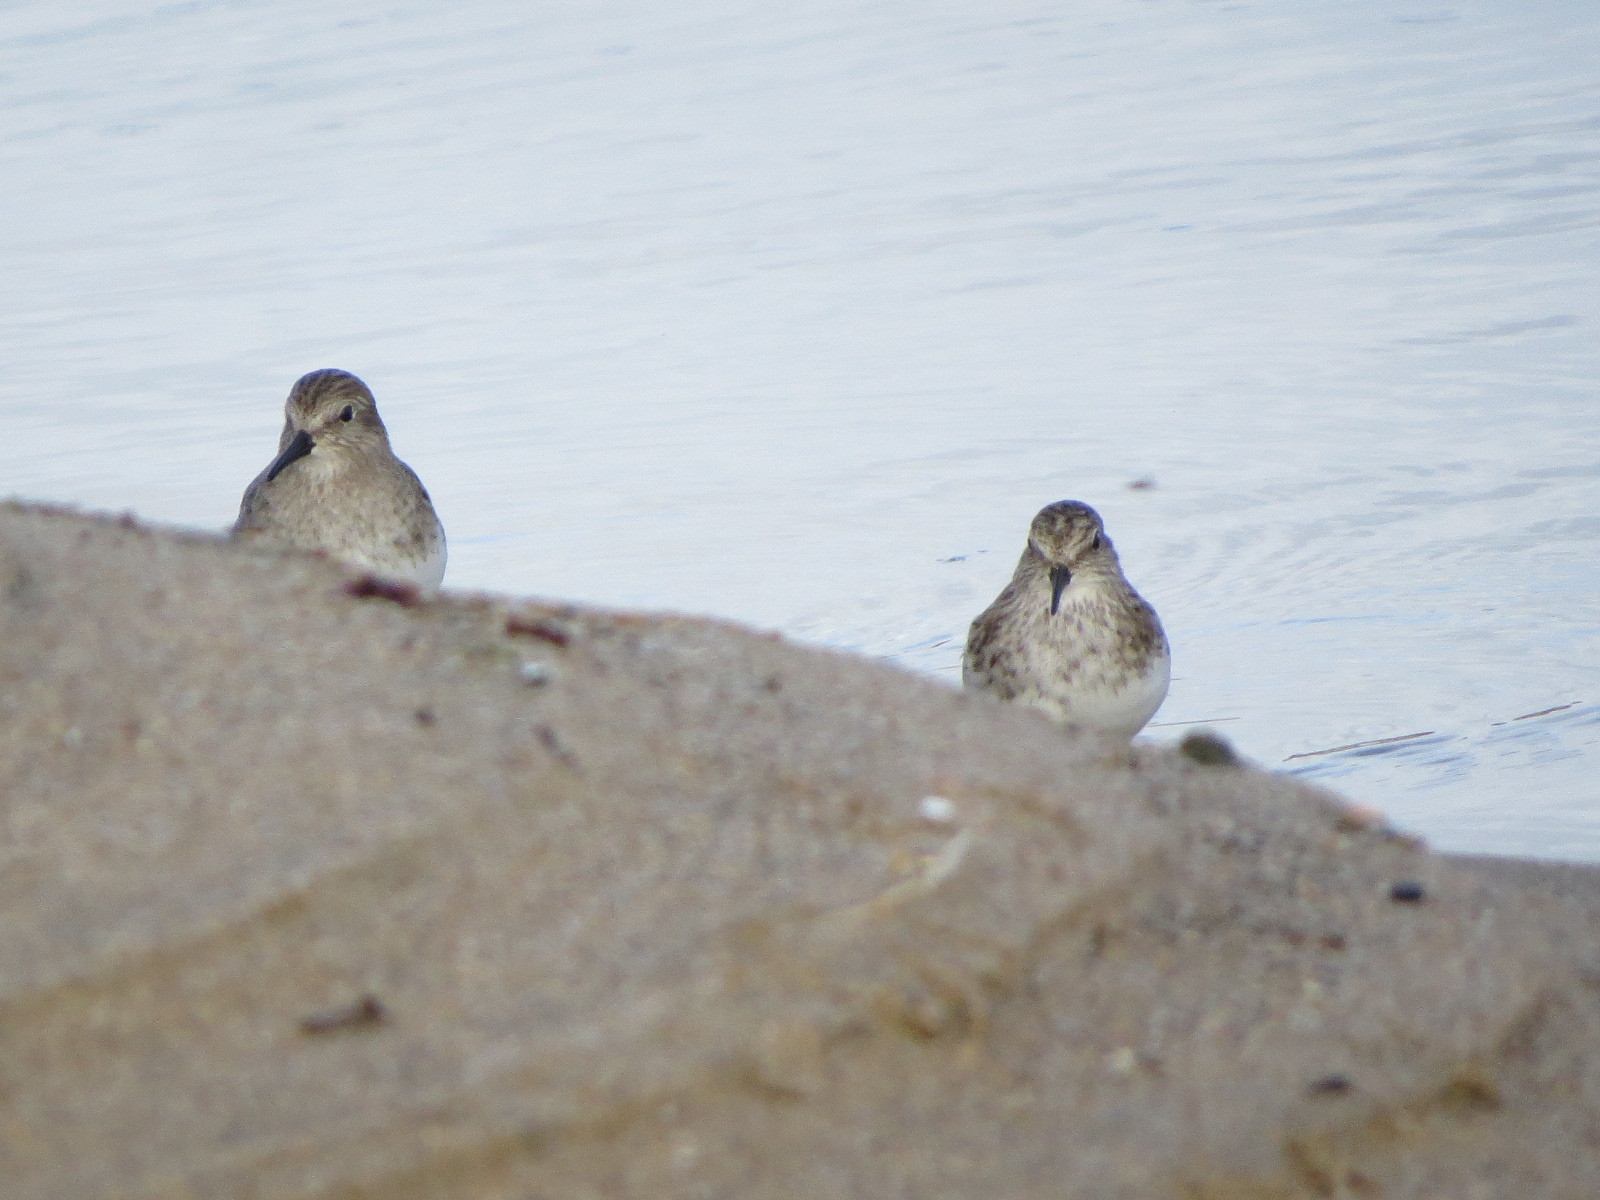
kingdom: Animalia
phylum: Chordata
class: Aves
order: Charadriiformes
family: Scolopacidae
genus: Calidris
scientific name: Calidris minutilla
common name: Least sandpiper
